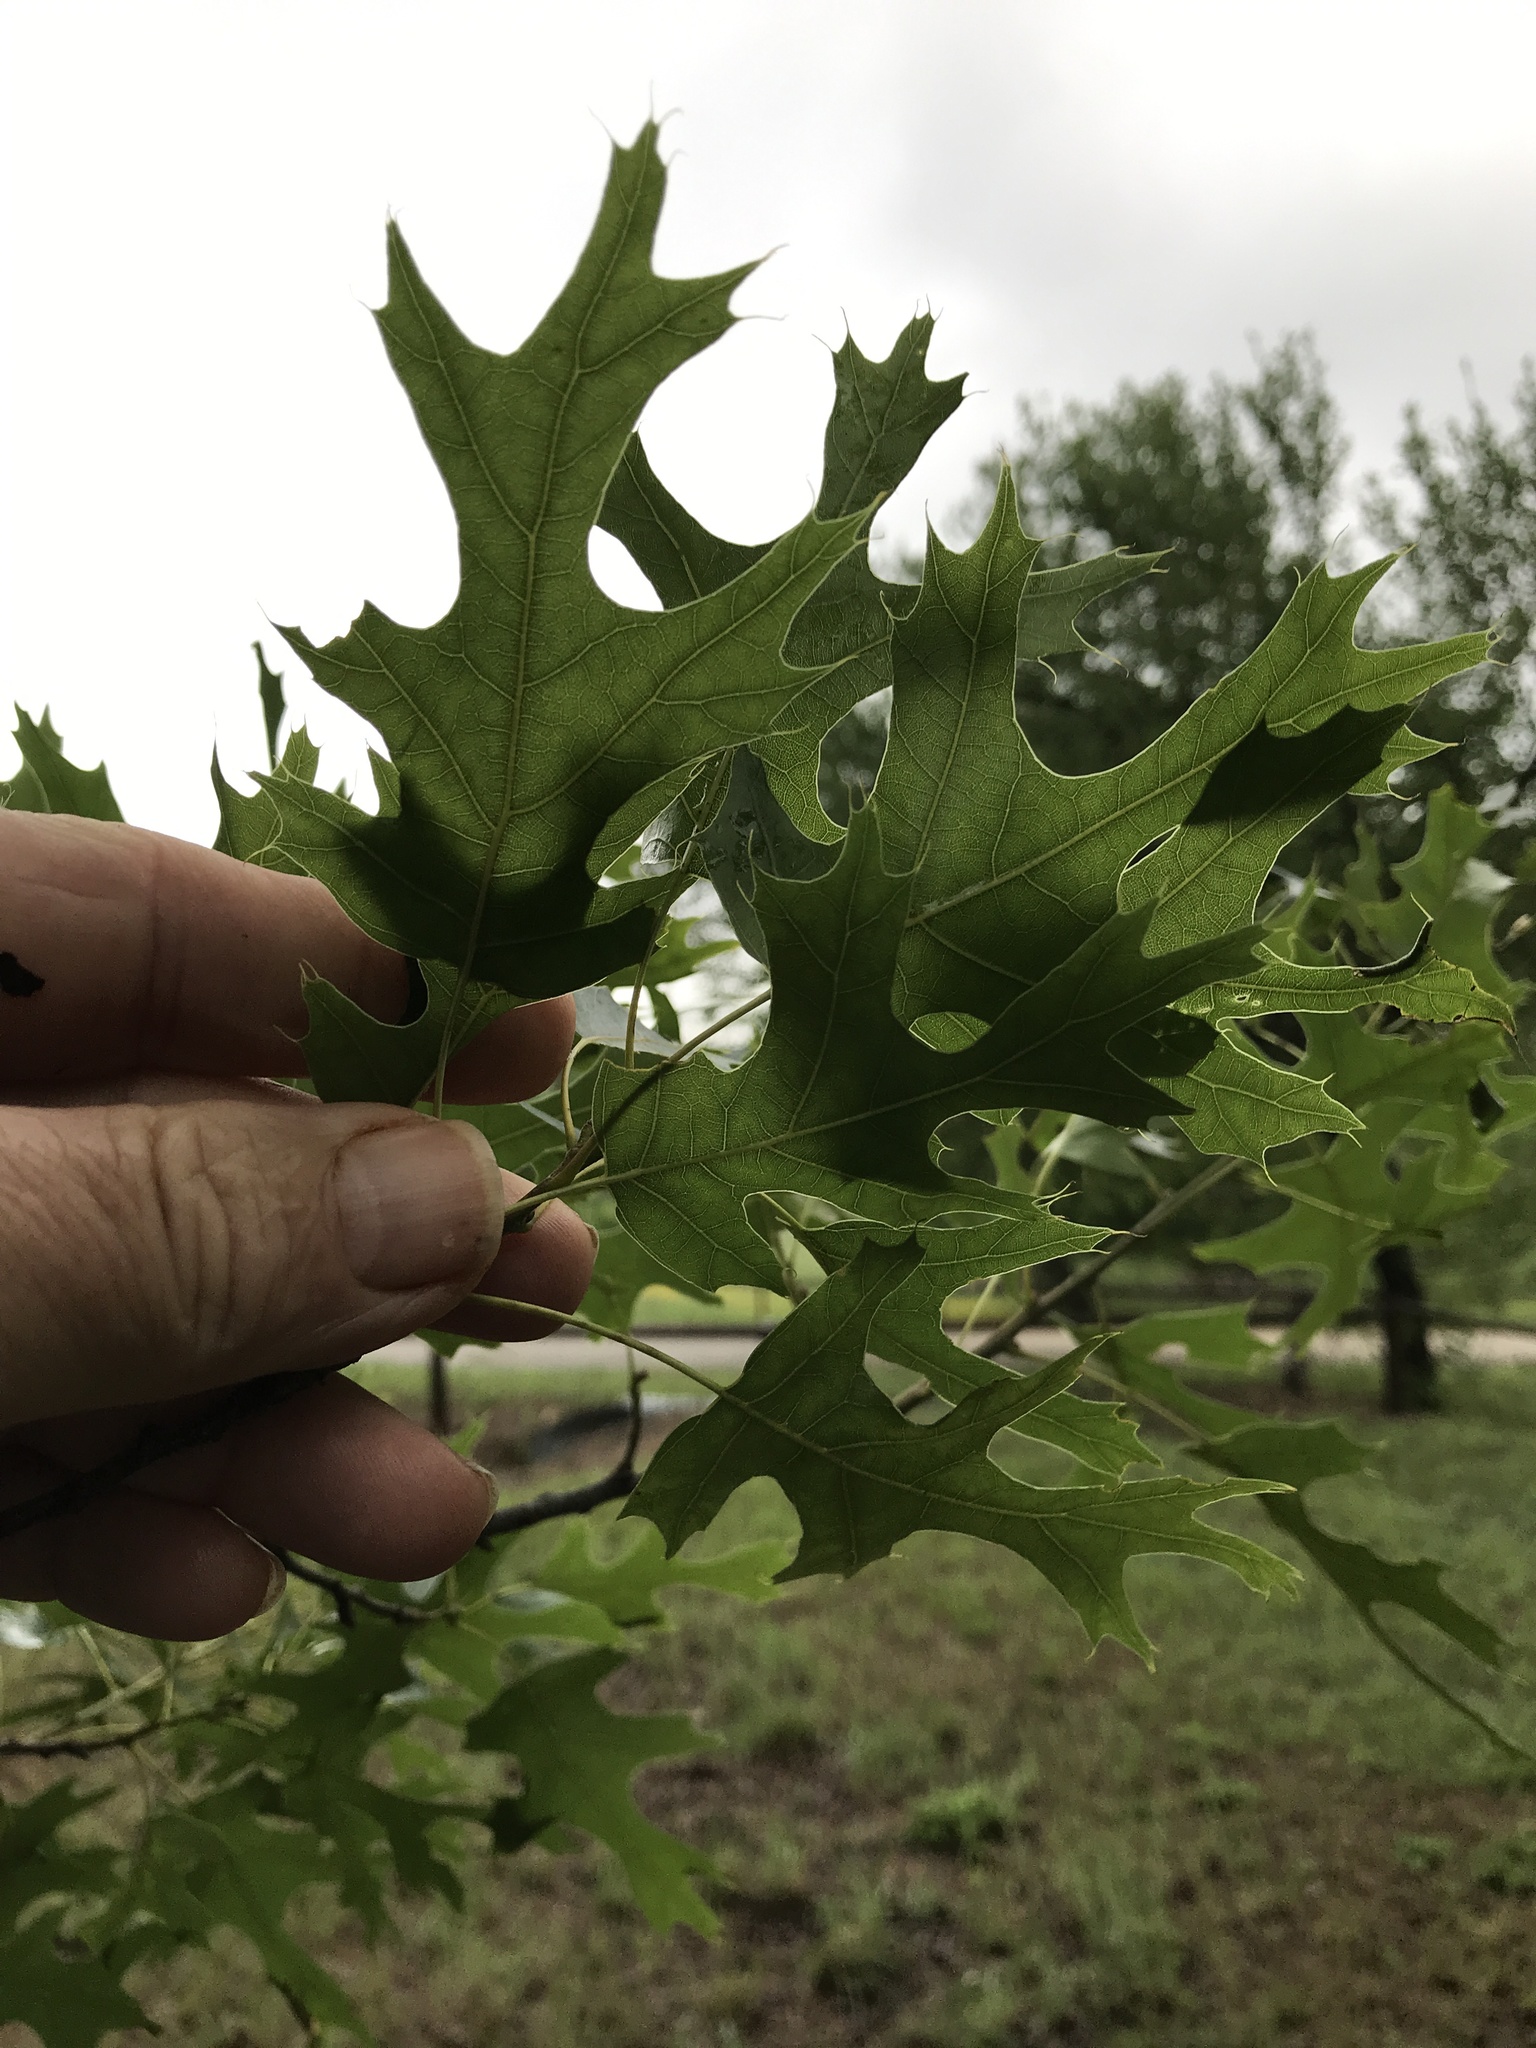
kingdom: Plantae
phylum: Tracheophyta
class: Magnoliopsida
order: Fagales
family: Fagaceae
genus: Quercus
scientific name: Quercus shumardii
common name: Shumard oak
